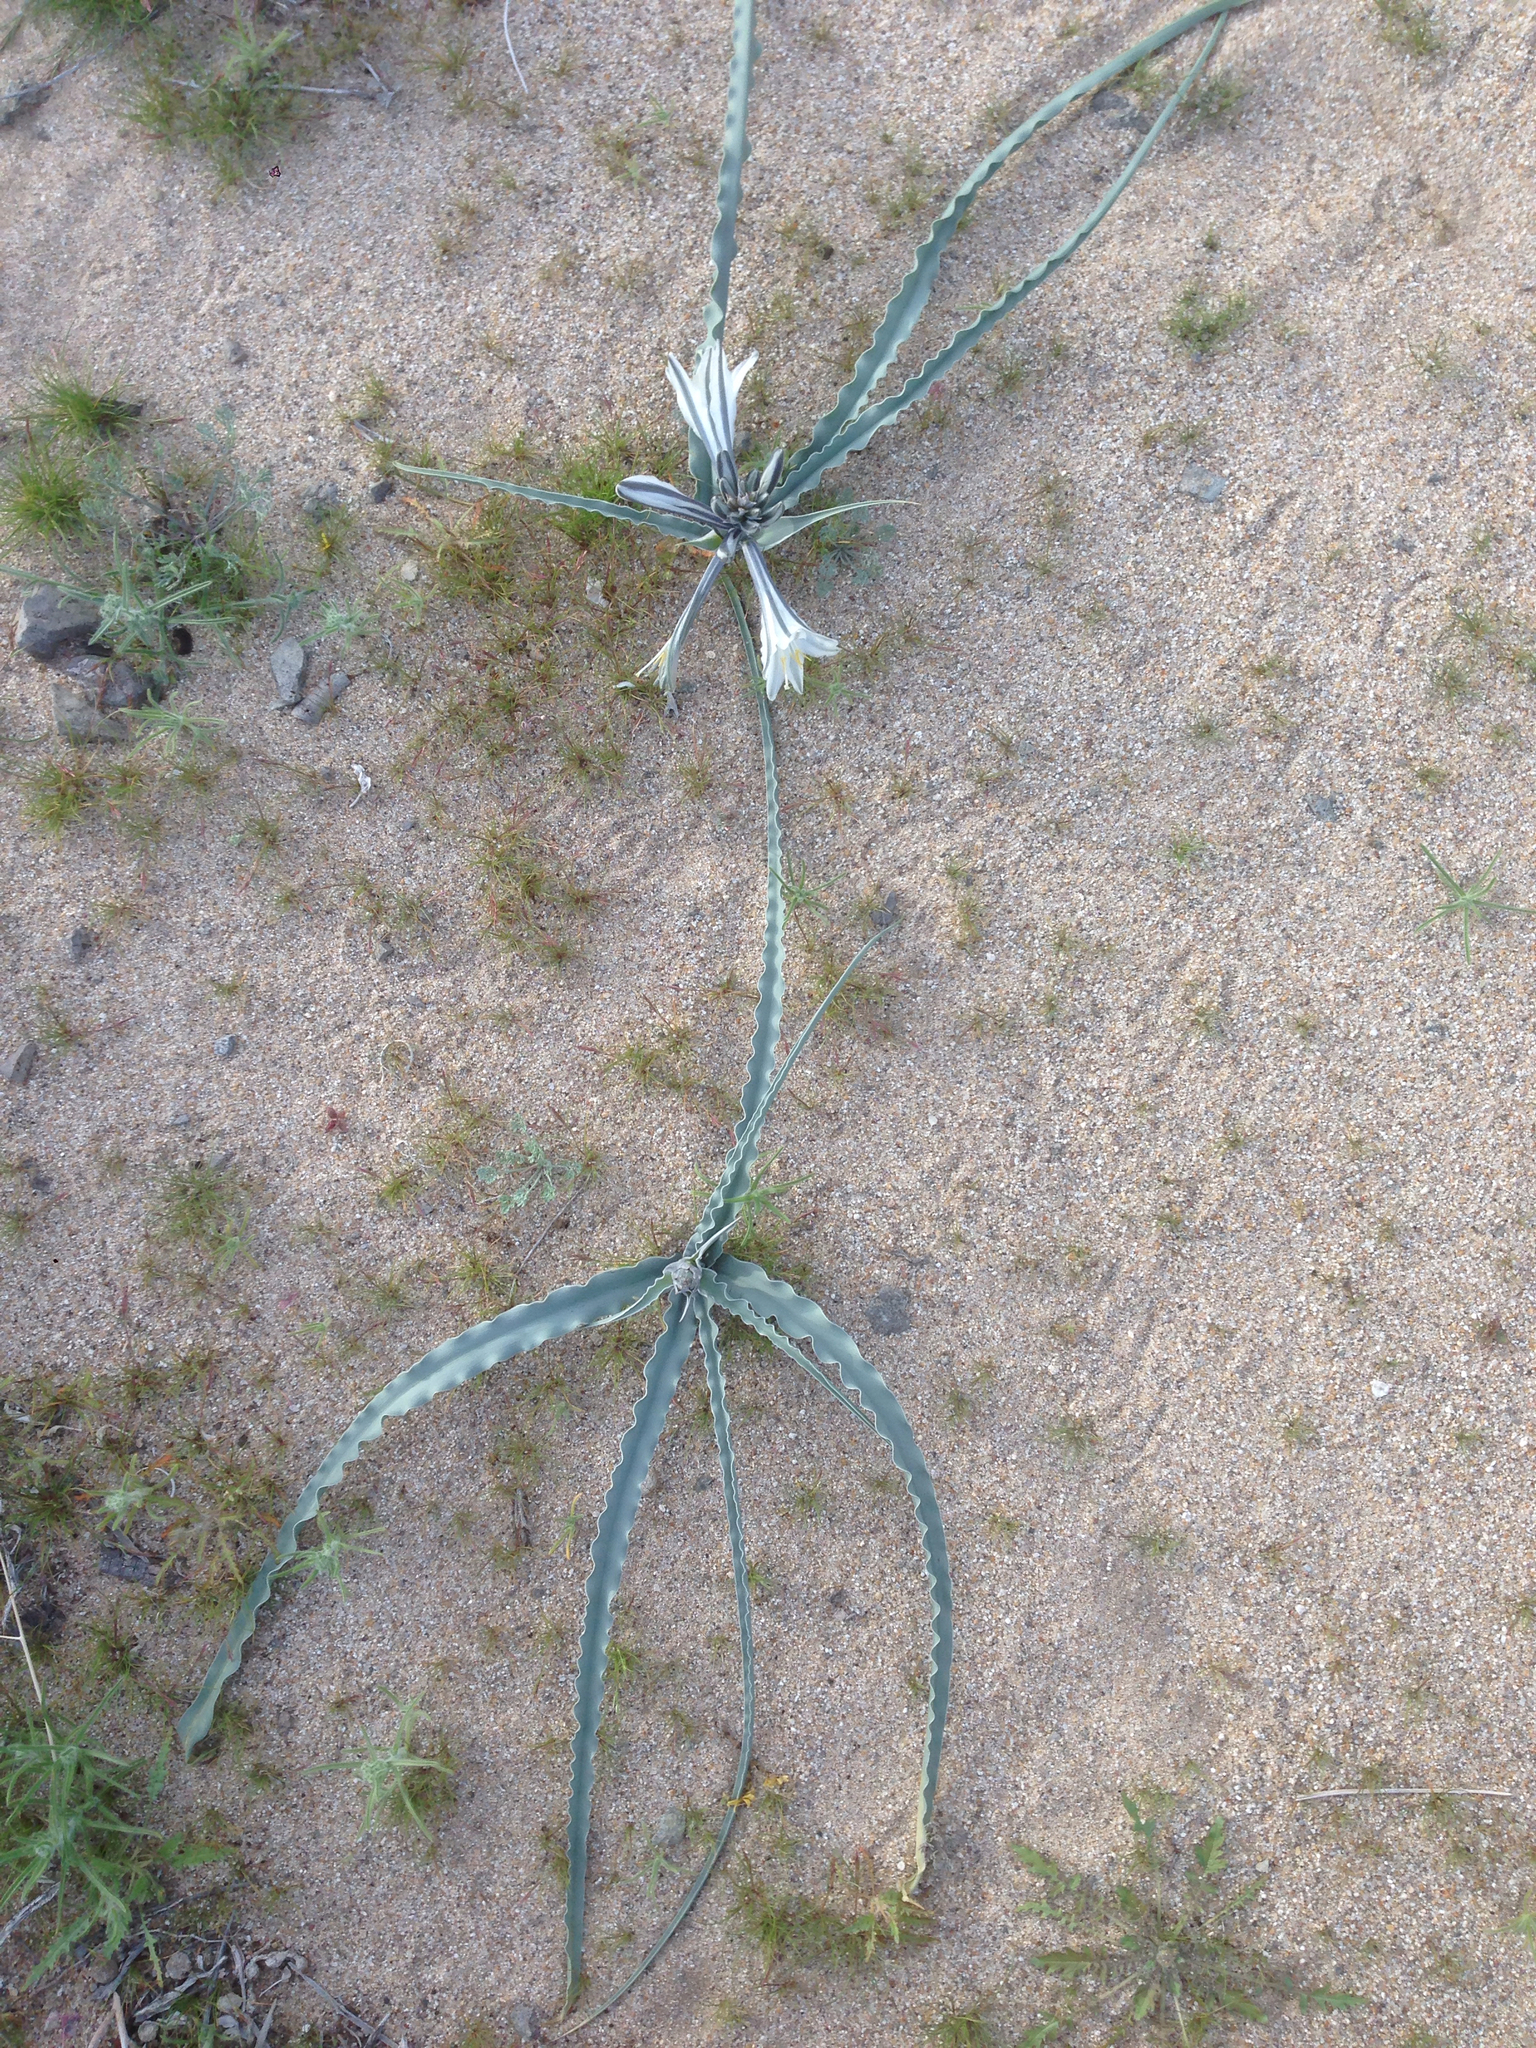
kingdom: Plantae
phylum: Tracheophyta
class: Liliopsida
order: Asparagales
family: Asparagaceae
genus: Hesperocallis
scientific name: Hesperocallis undulata
